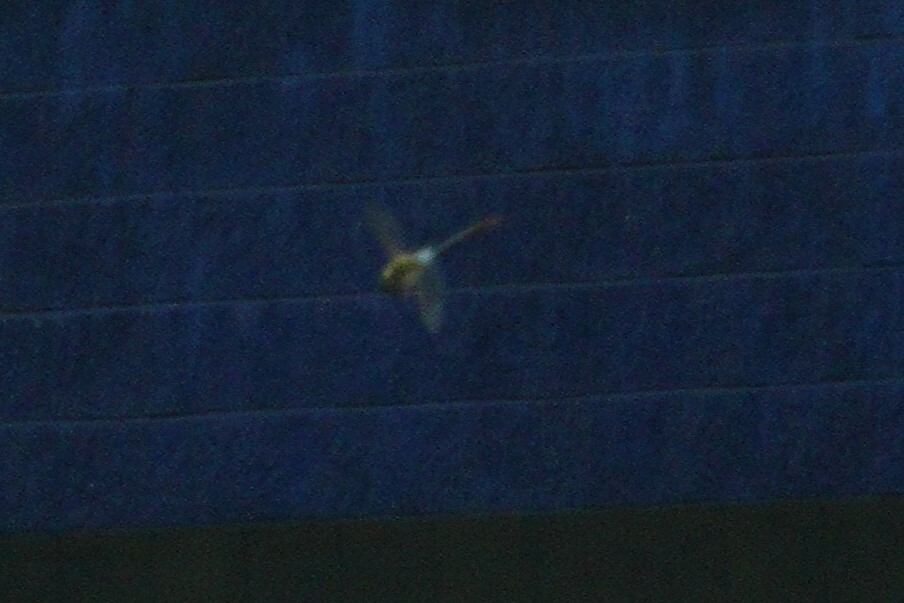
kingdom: Animalia
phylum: Arthropoda
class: Insecta
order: Odonata
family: Aeshnidae
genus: Anax
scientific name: Anax junius
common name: Common green darner
